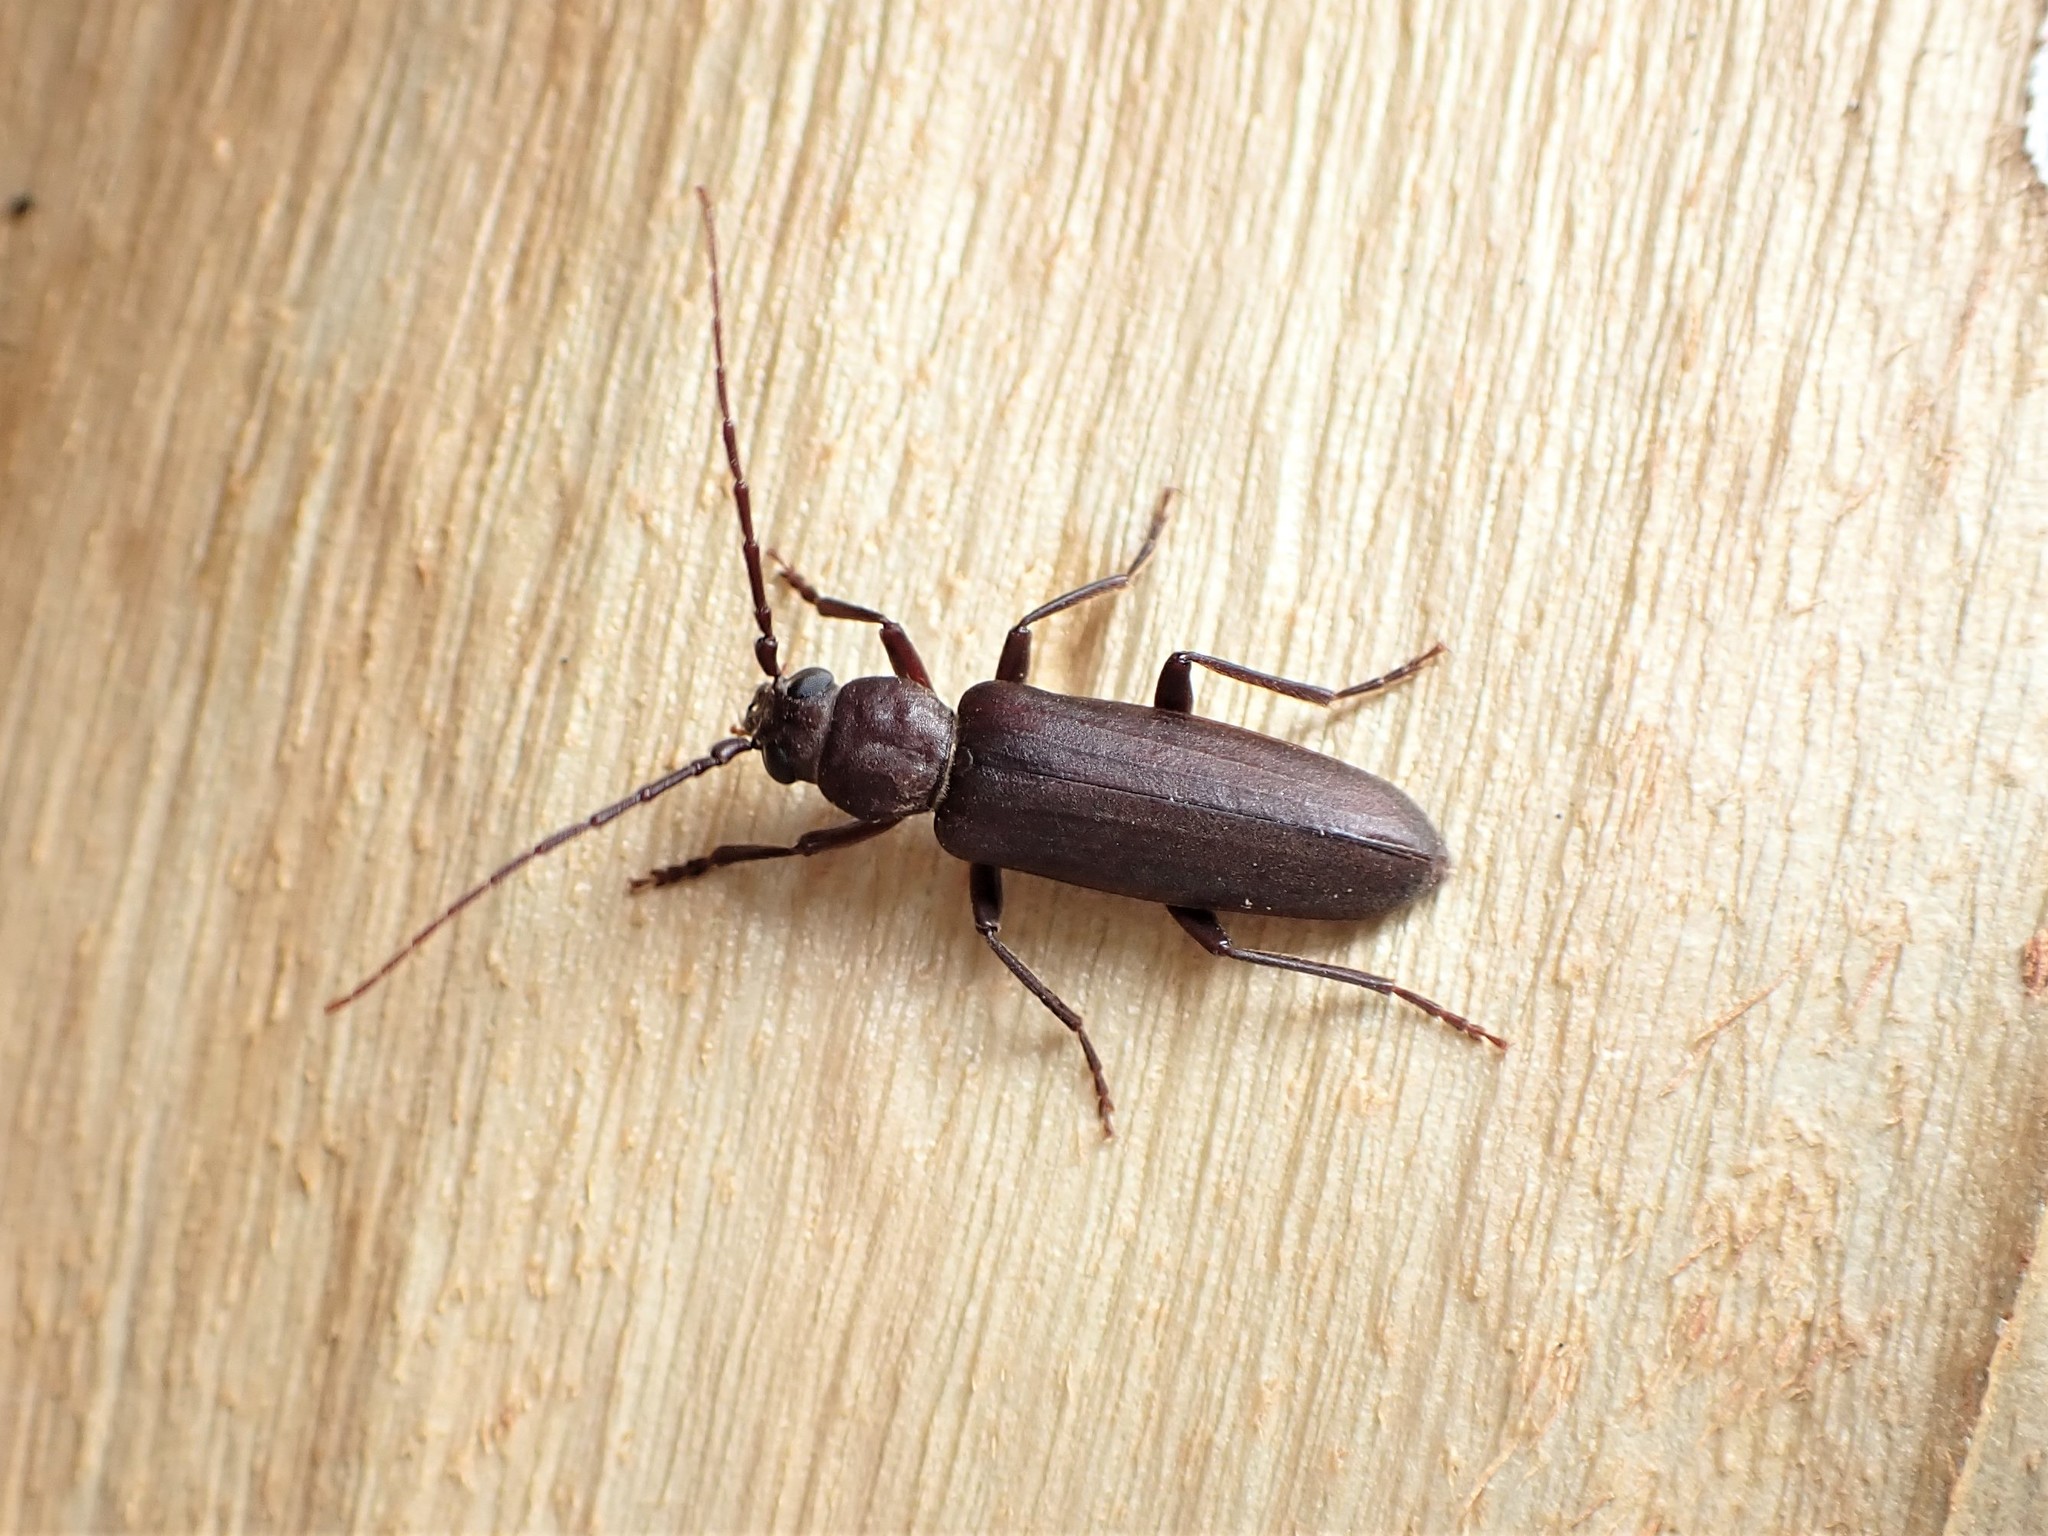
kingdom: Animalia
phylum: Arthropoda
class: Insecta
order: Coleoptera
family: Cerambycidae
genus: Arhopalus
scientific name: Arhopalus ferus
